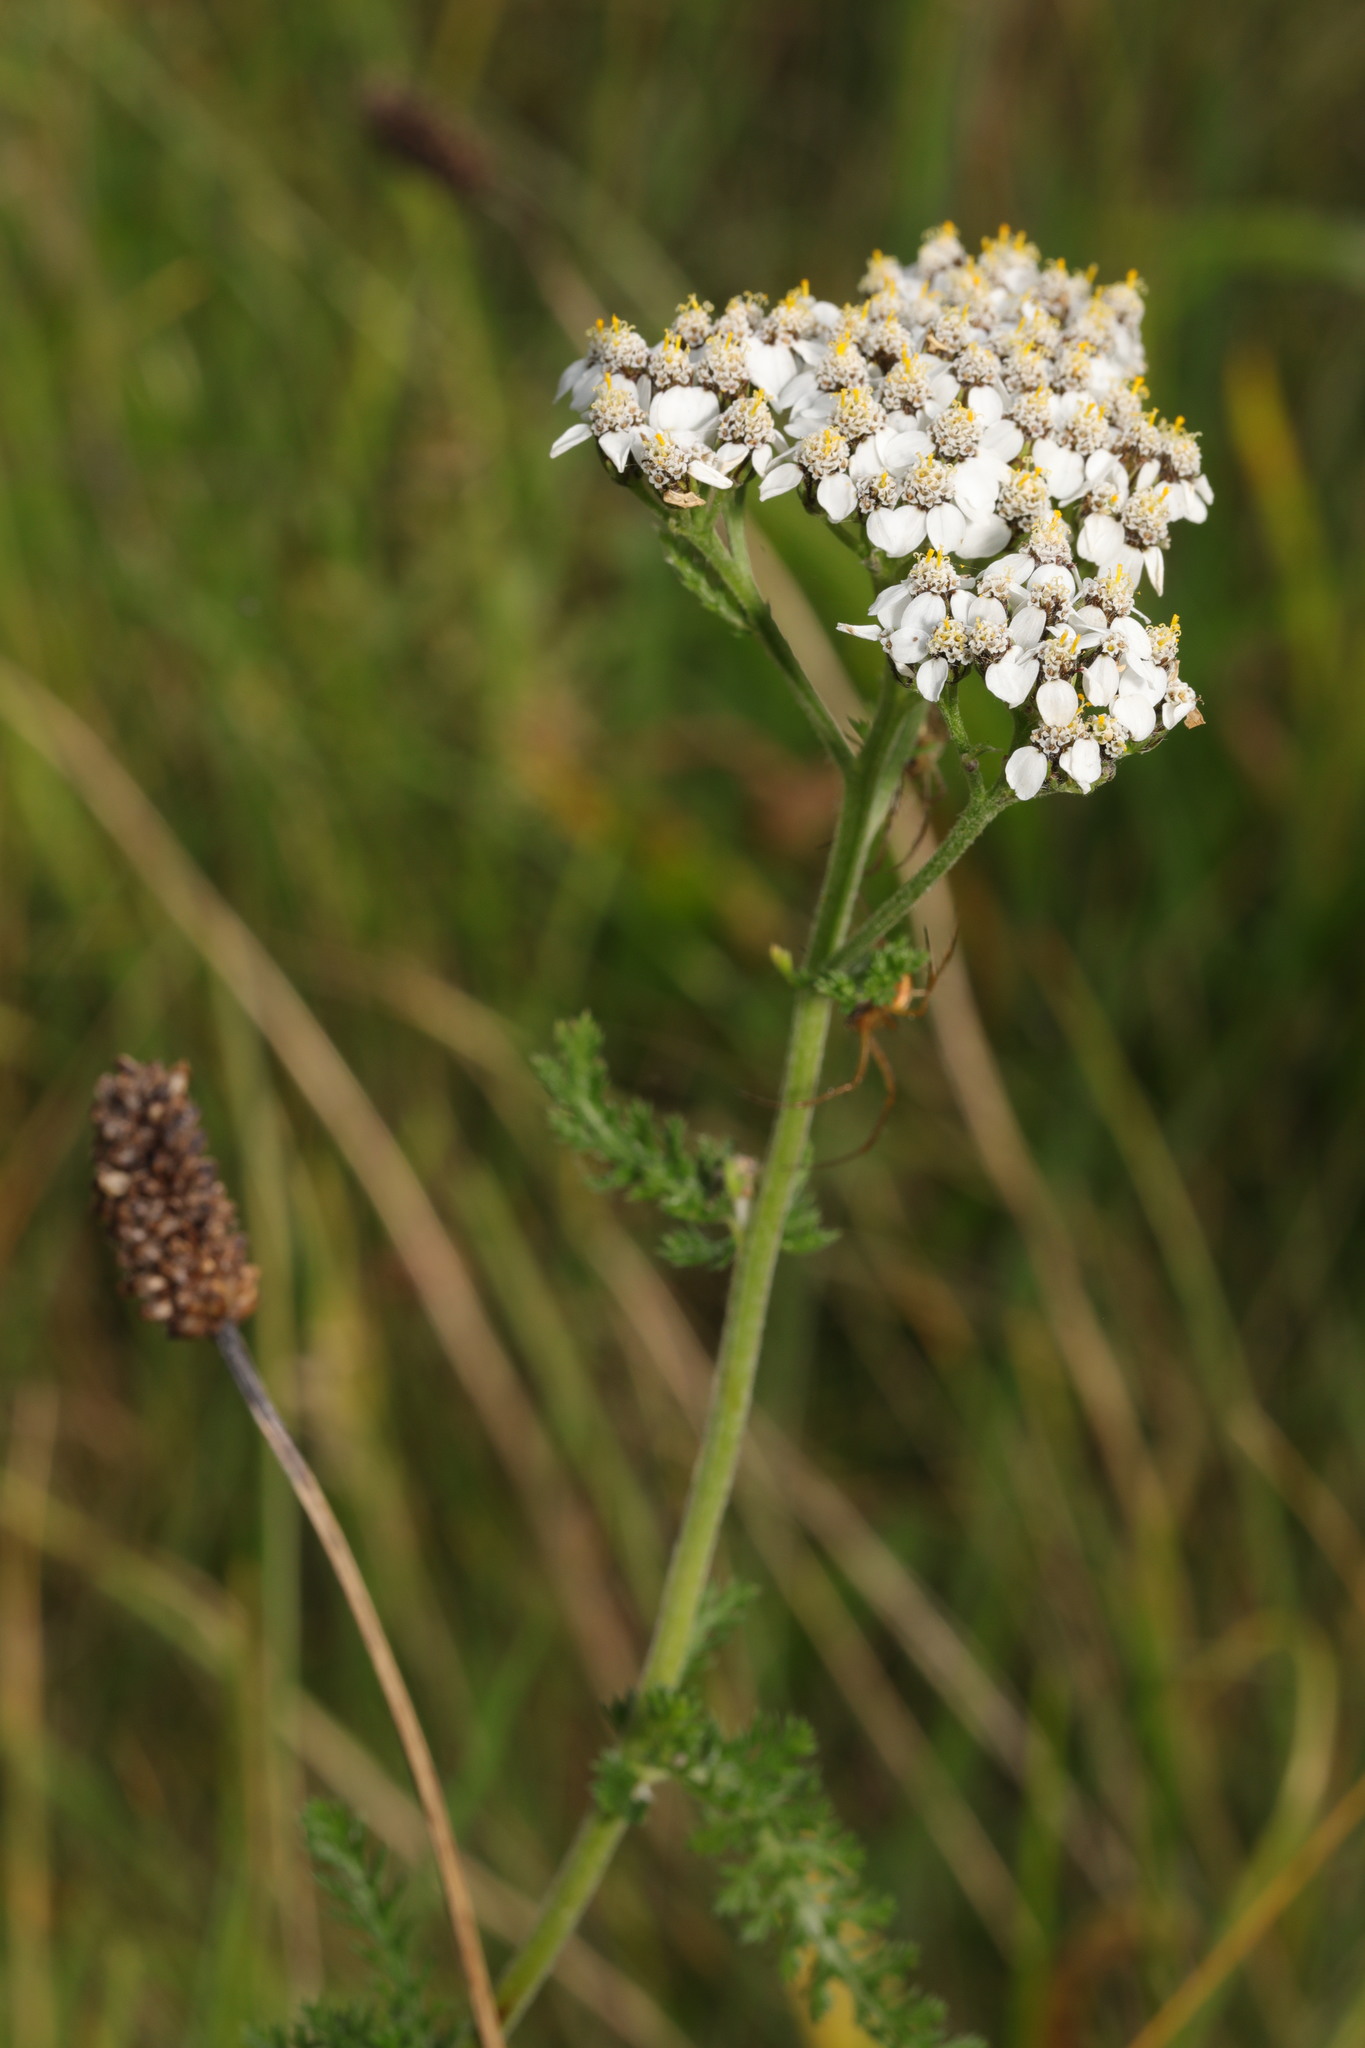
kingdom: Plantae
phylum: Tracheophyta
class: Magnoliopsida
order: Asterales
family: Asteraceae
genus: Achillea
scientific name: Achillea millefolium
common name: Yarrow
